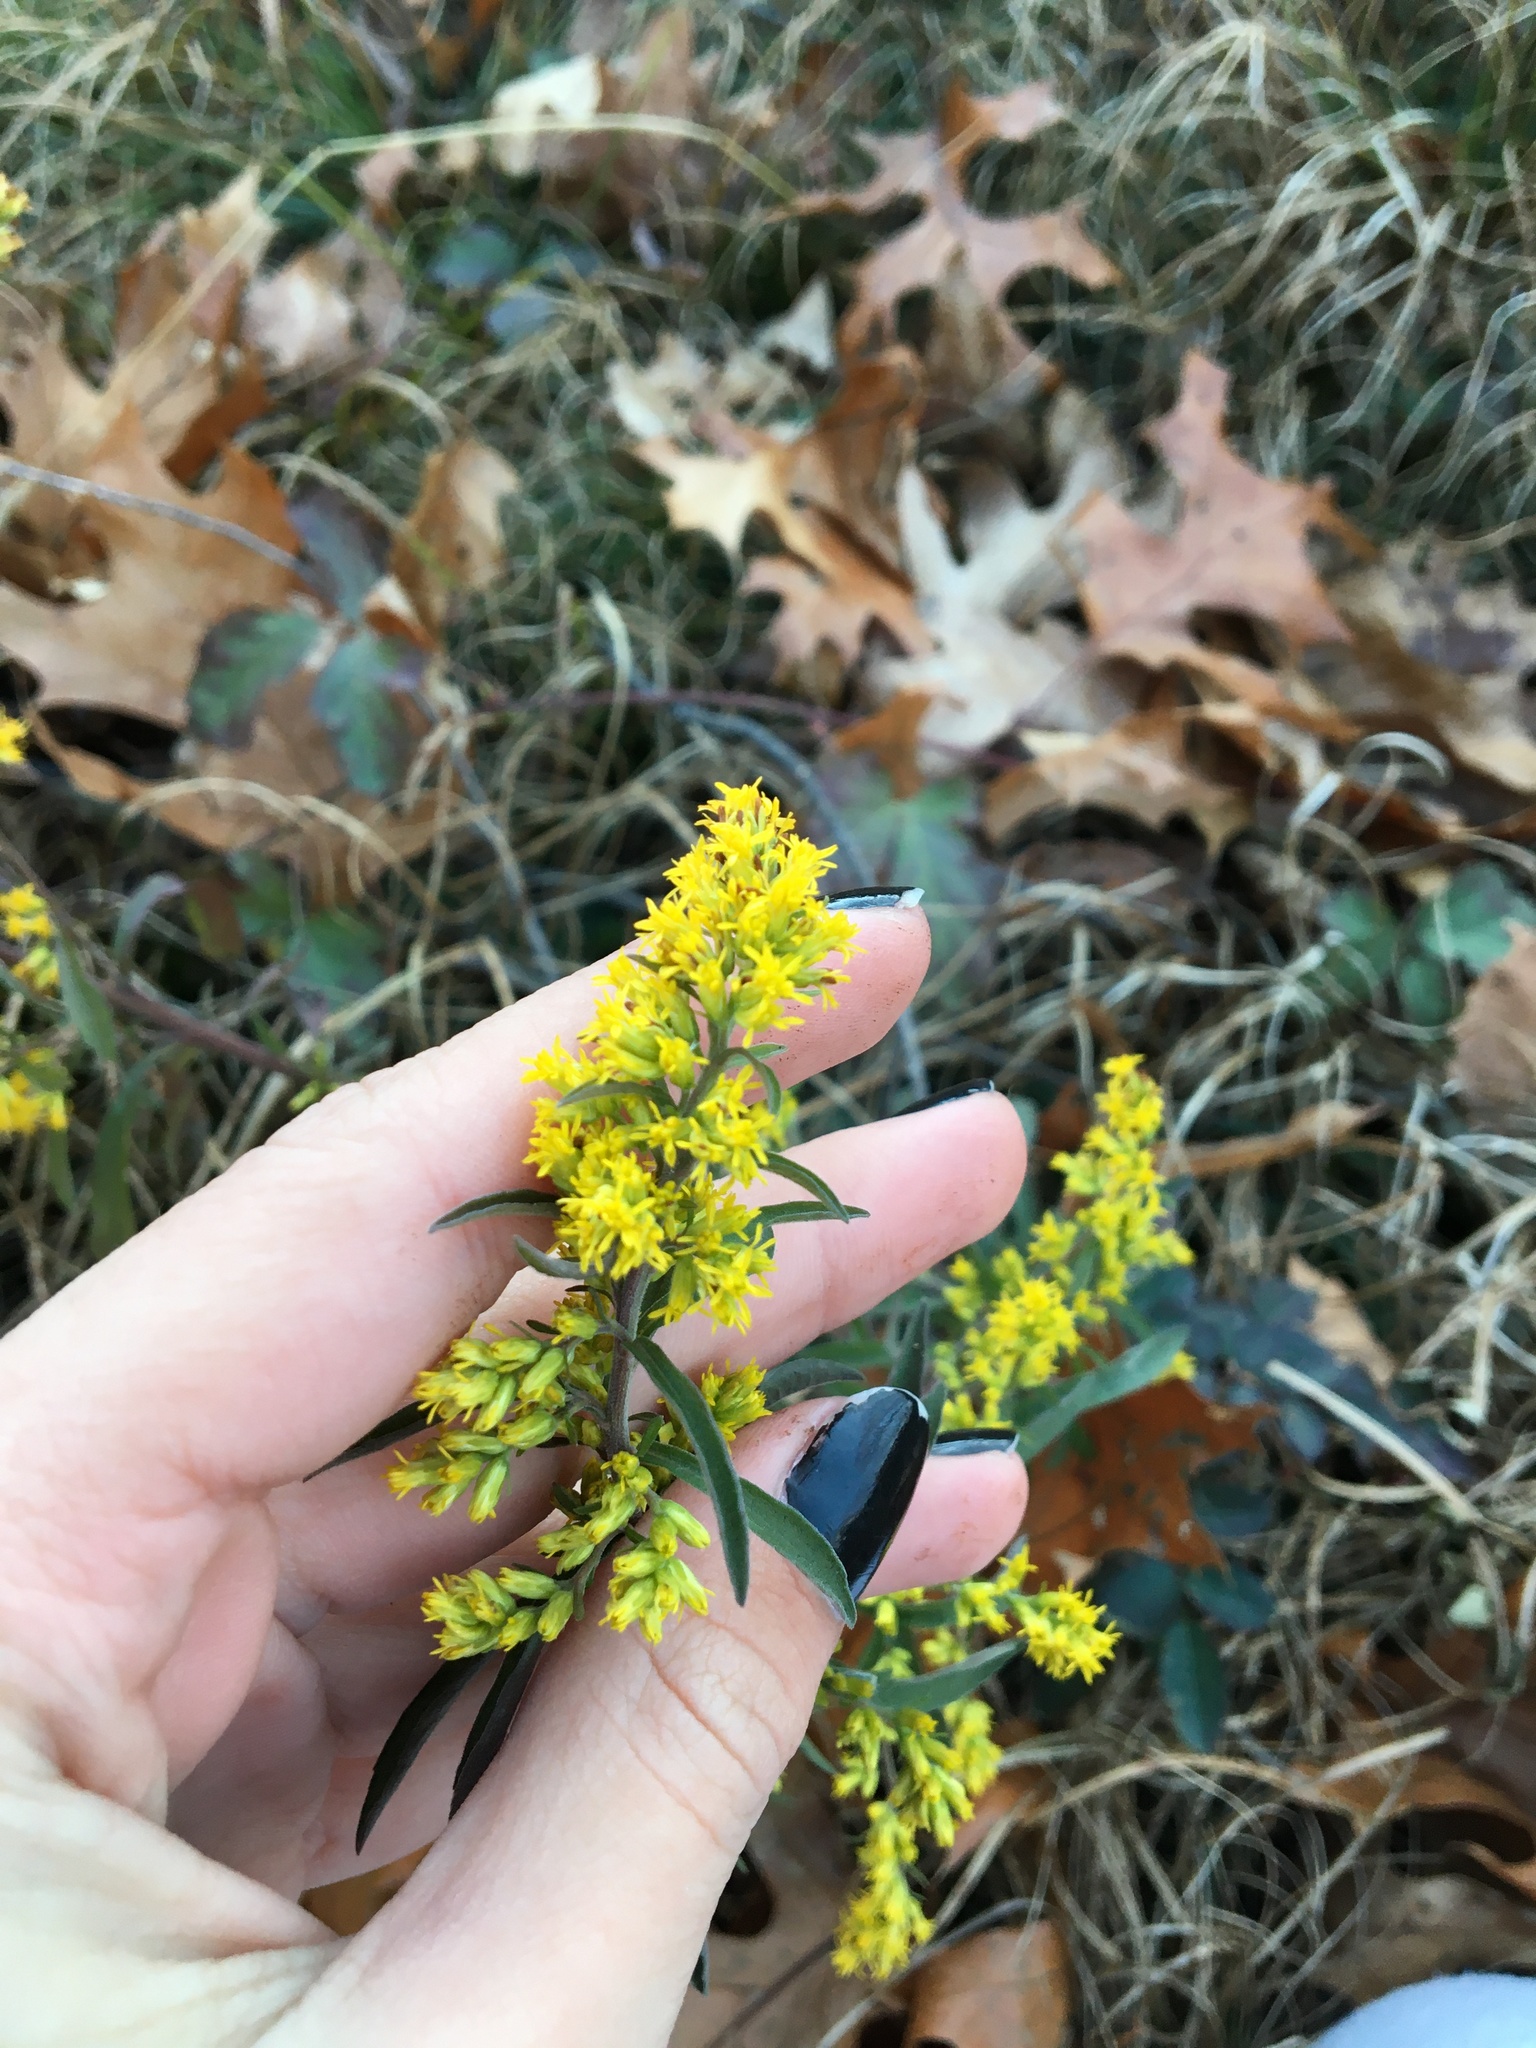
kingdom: Plantae
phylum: Tracheophyta
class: Magnoliopsida
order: Asterales
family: Asteraceae
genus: Solidago
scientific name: Solidago nemoralis
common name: Grey goldenrod
